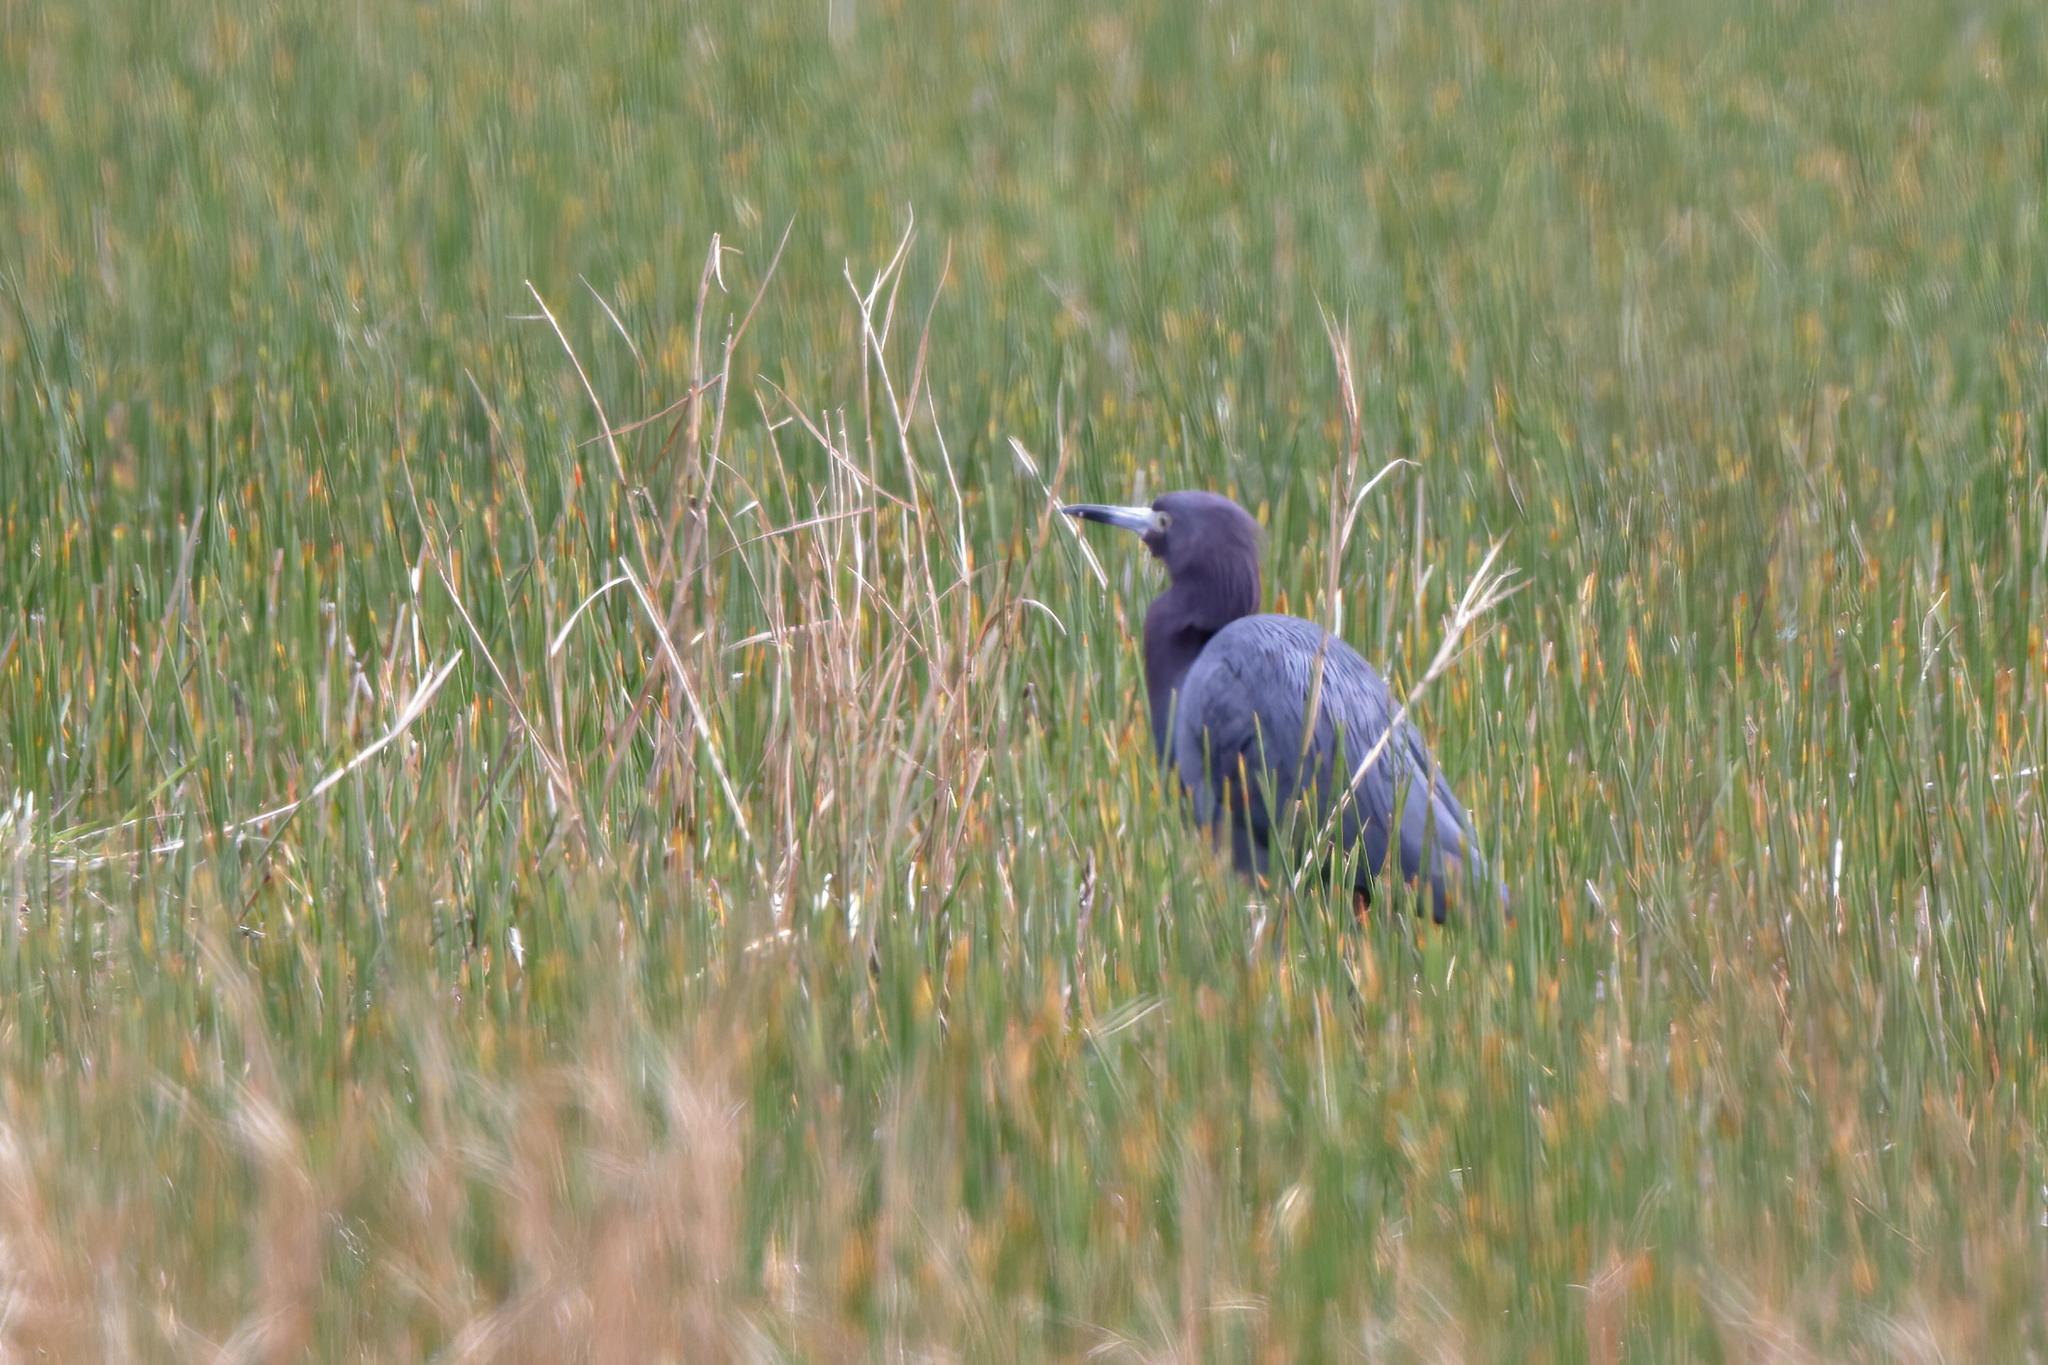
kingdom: Animalia
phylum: Chordata
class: Aves
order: Pelecaniformes
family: Ardeidae
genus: Egretta
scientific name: Egretta caerulea
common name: Little blue heron
